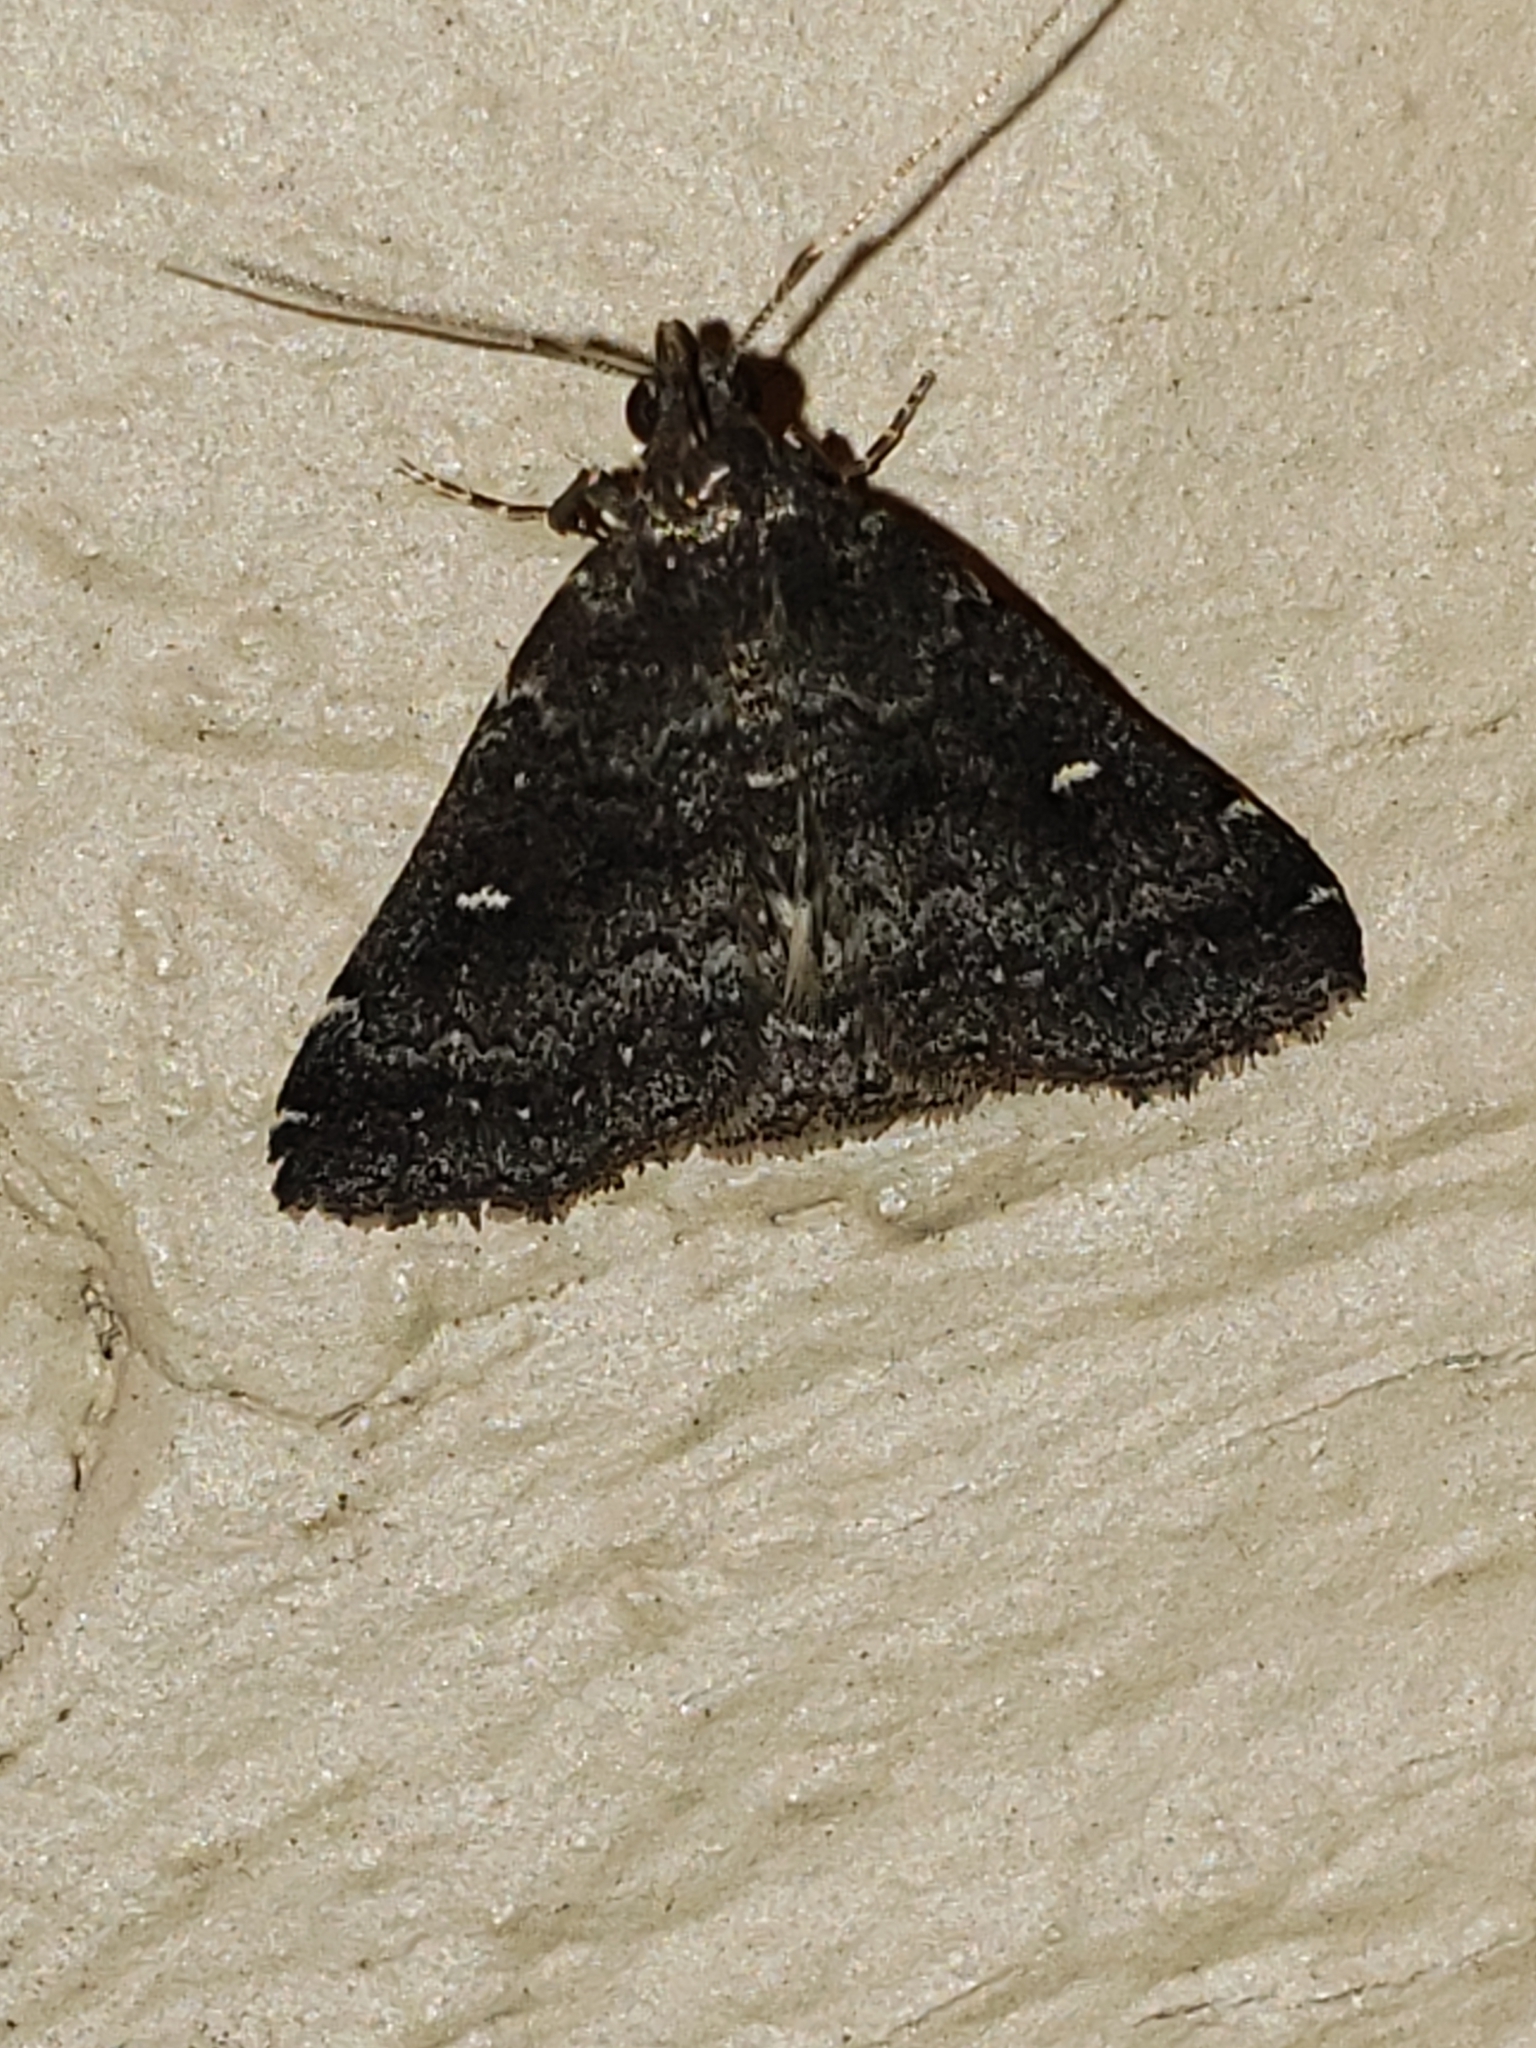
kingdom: Animalia
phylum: Arthropoda
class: Insecta
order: Lepidoptera
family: Erebidae
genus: Tetanolita
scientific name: Tetanolita mynesalis
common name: Smoky tetanolita moth
